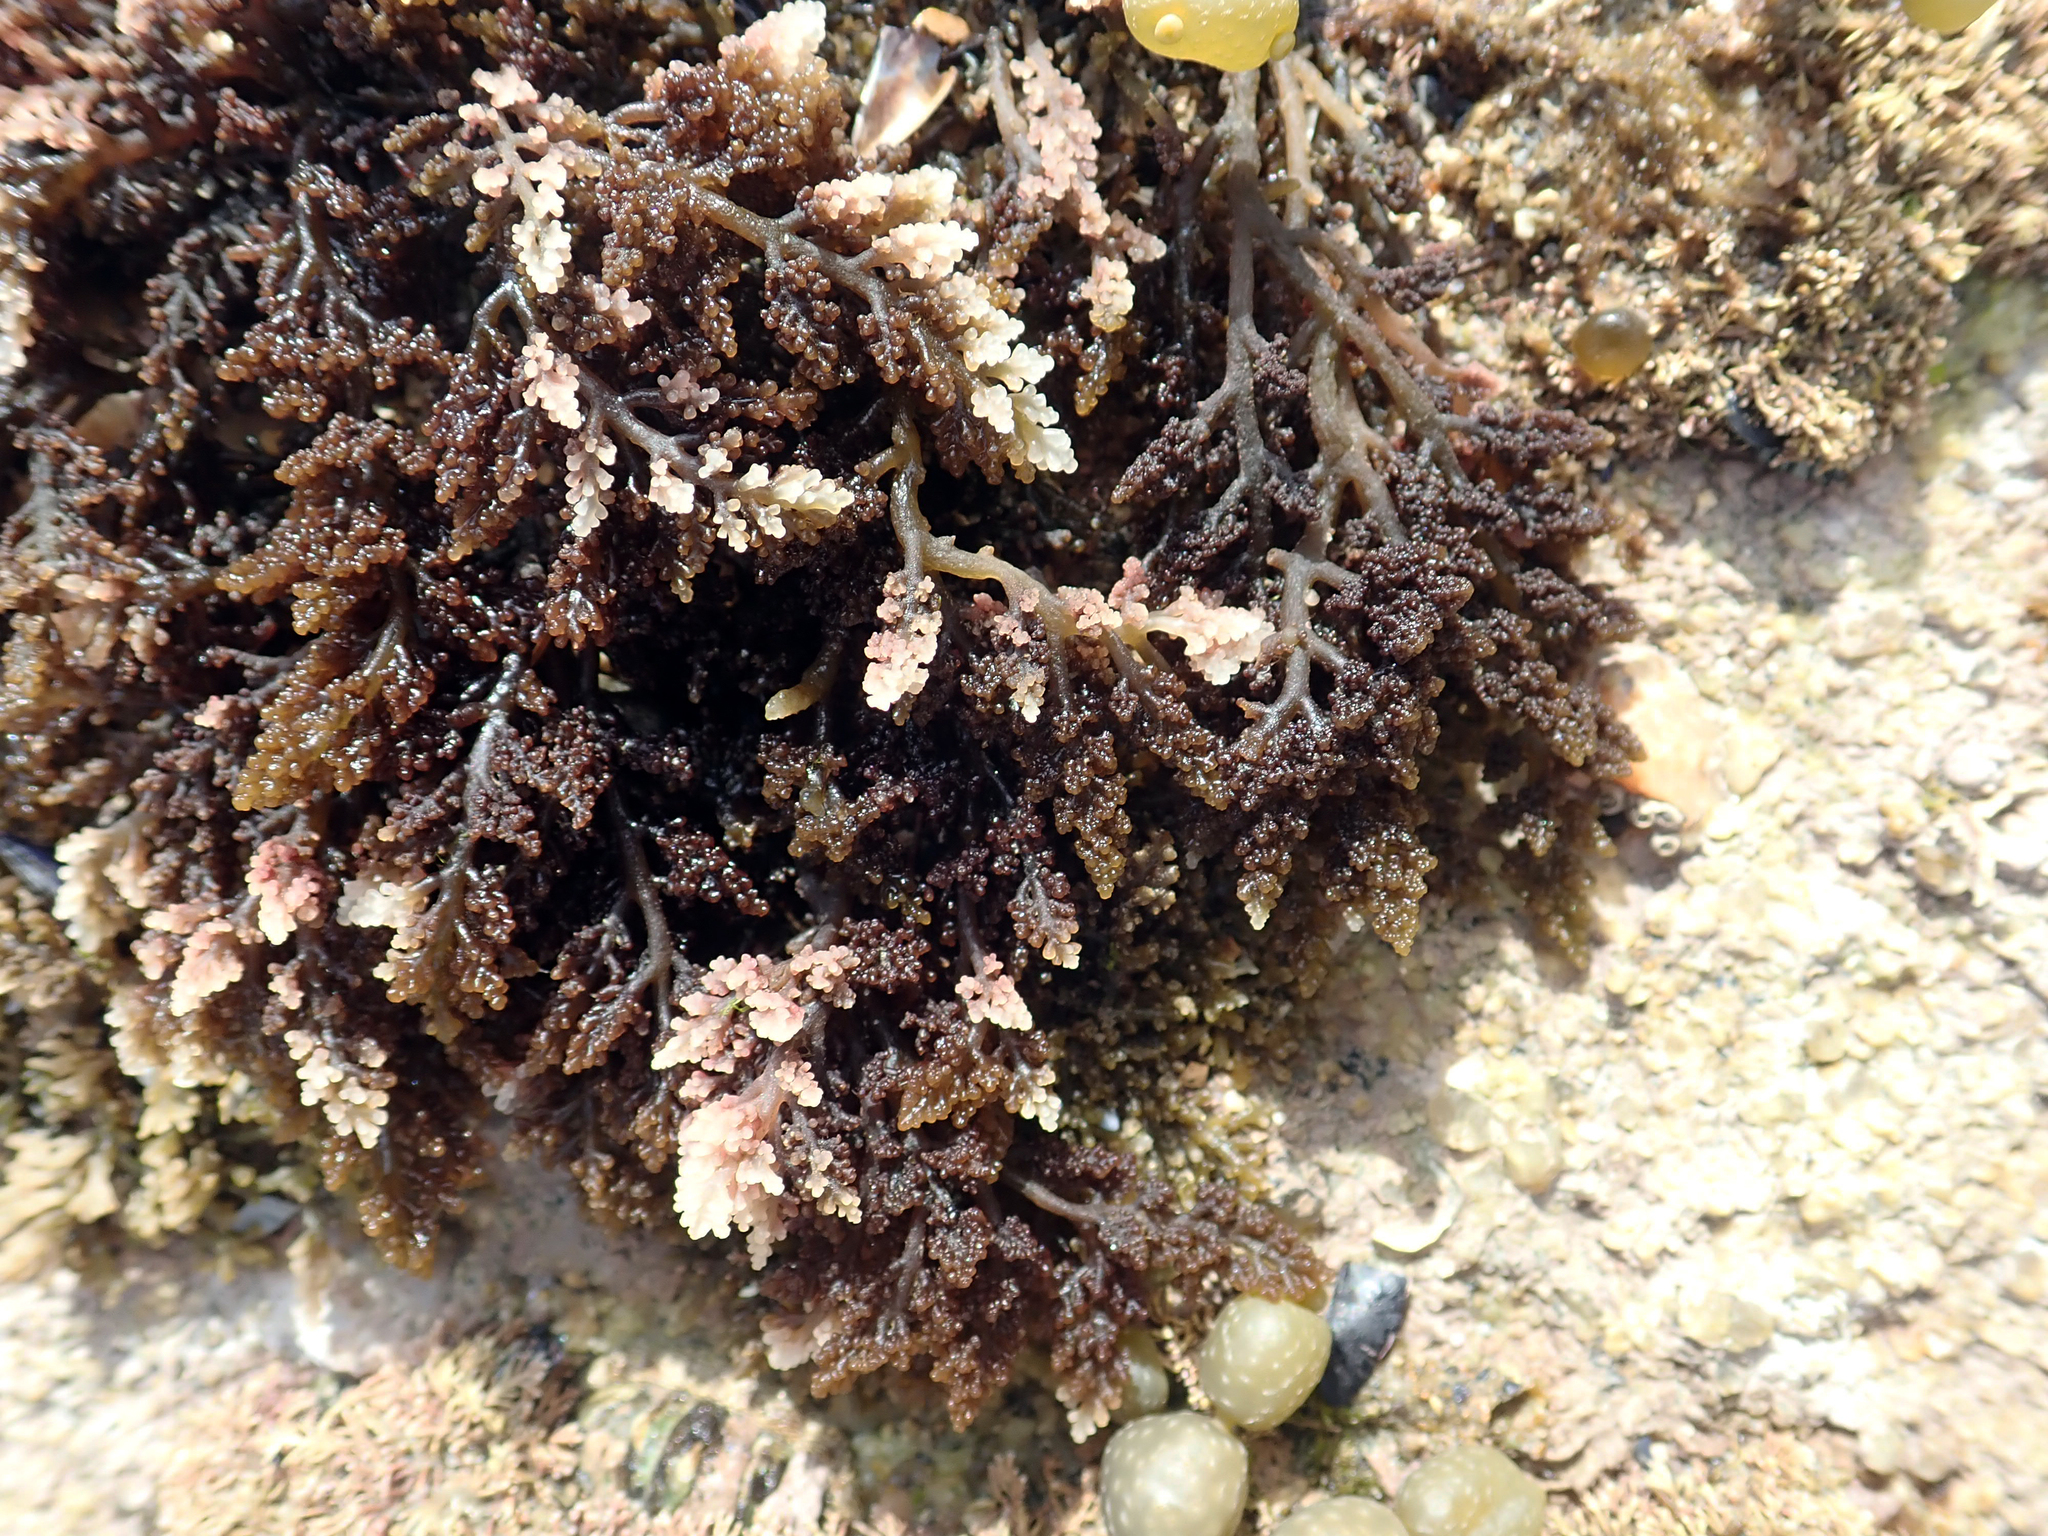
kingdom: Plantae
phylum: Rhodophyta
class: Florideophyceae
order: Ceramiales
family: Rhodomelaceae
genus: Laurencia
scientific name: Laurencia thyrsifera
